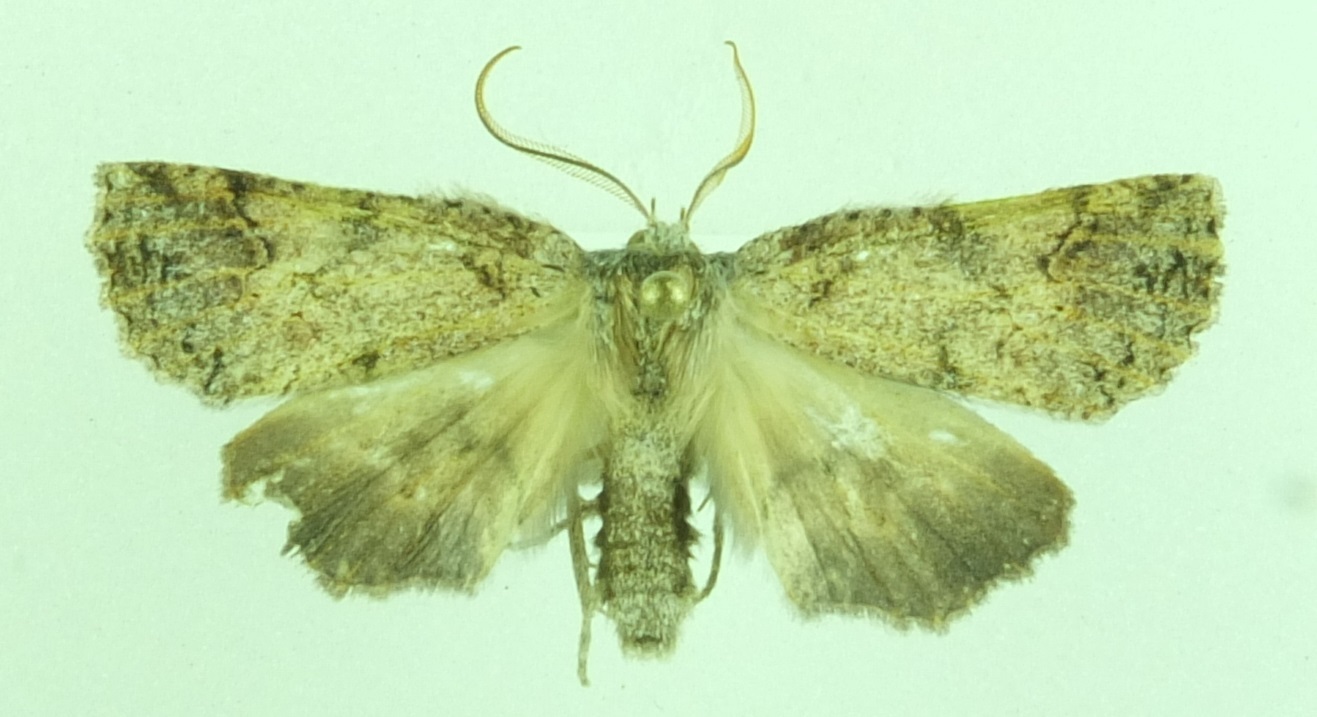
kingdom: Animalia
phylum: Arthropoda
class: Insecta
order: Lepidoptera
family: Geometridae
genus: Declana
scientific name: Declana floccosa
